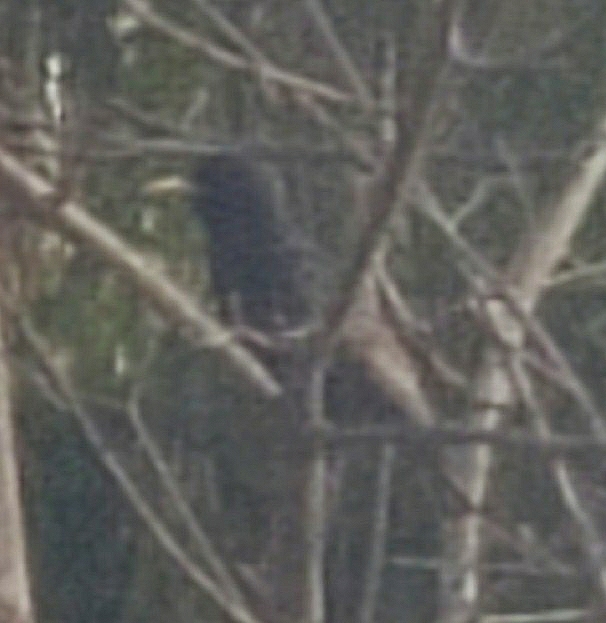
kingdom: Animalia
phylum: Chordata
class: Aves
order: Passeriformes
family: Sturnidae
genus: Sturnus
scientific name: Sturnus vulgaris
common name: Common starling
